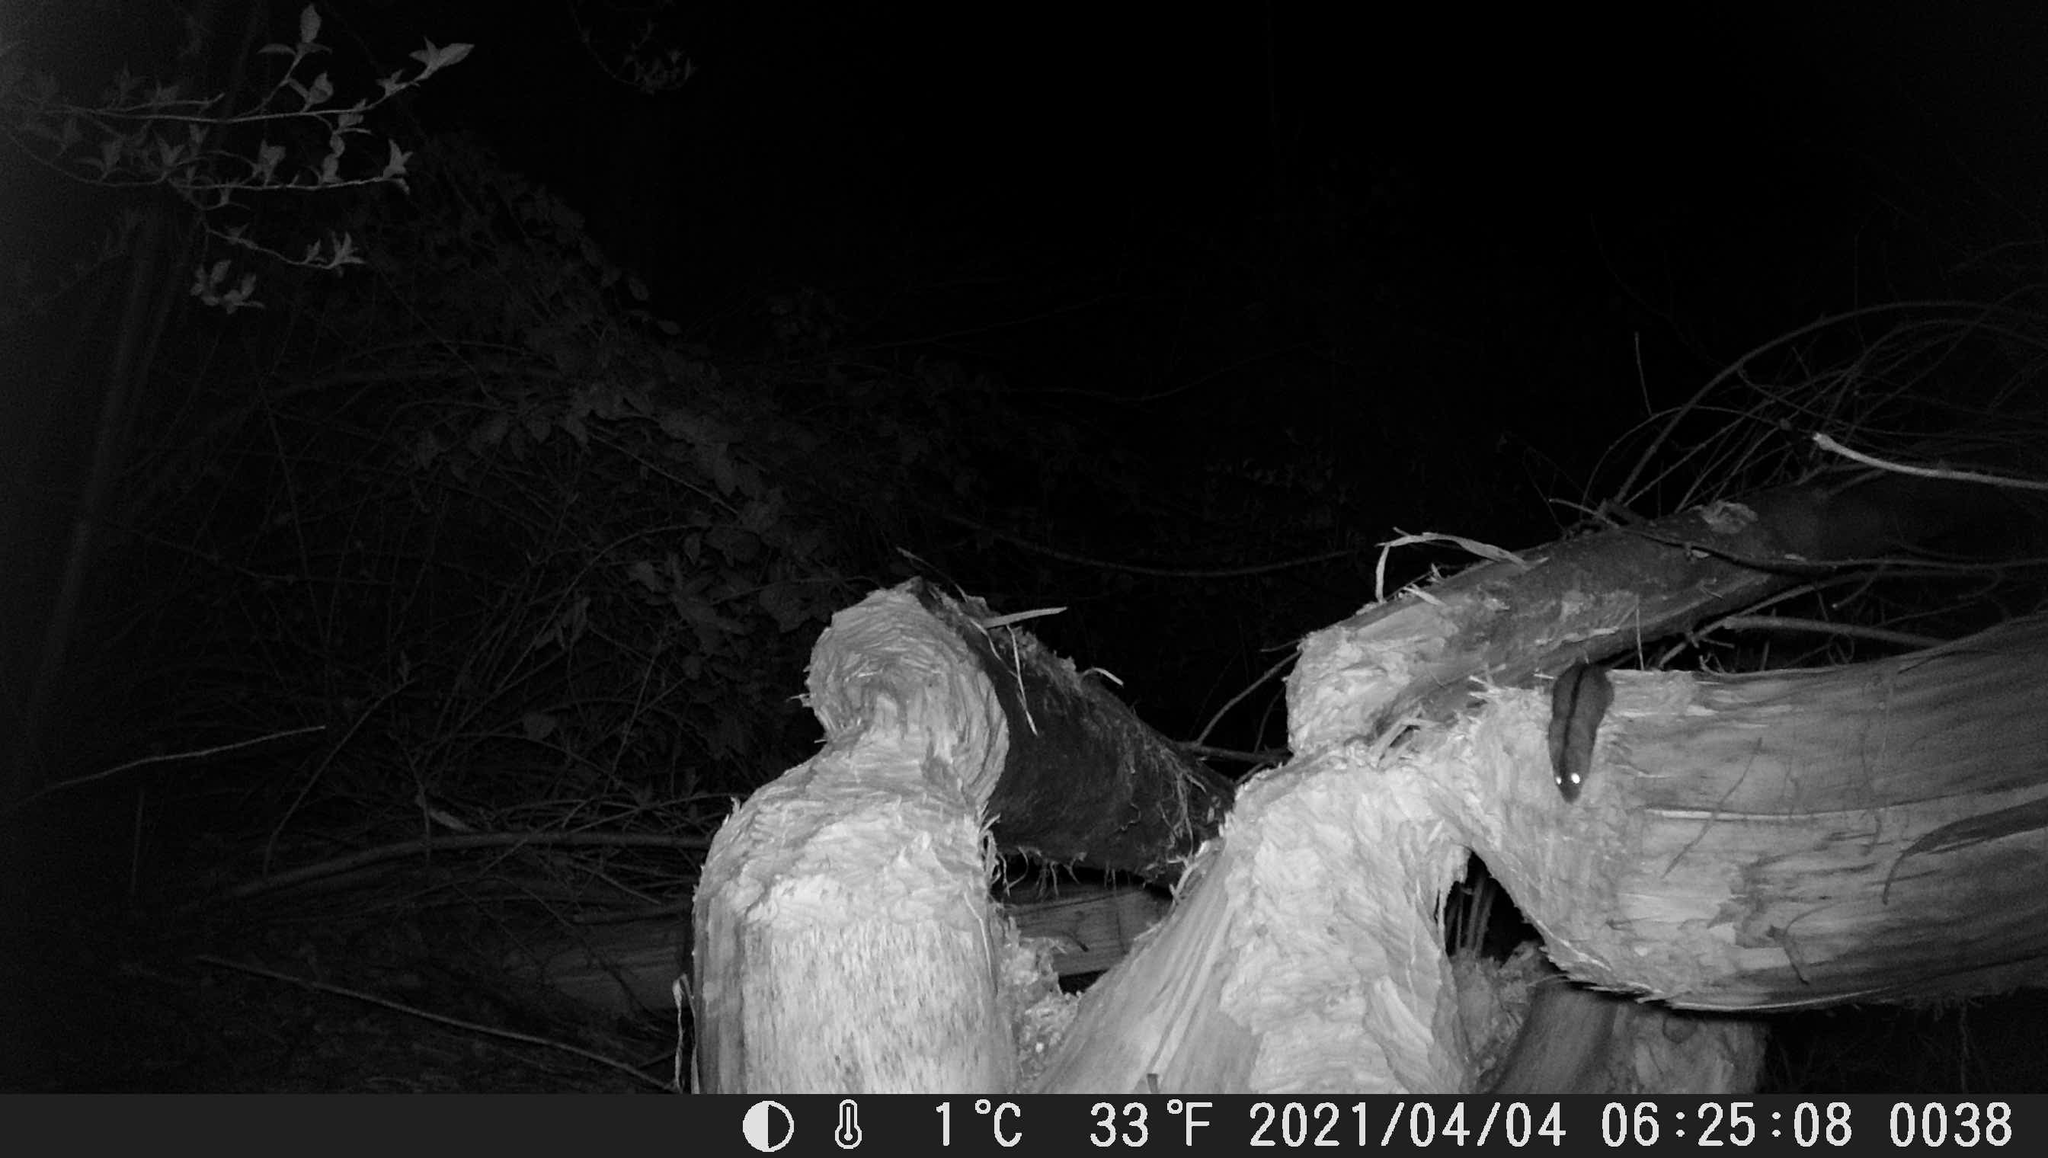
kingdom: Animalia
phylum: Chordata
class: Mammalia
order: Rodentia
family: Muridae
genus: Apodemus
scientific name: Apodemus agrarius
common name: Striped field mouse
